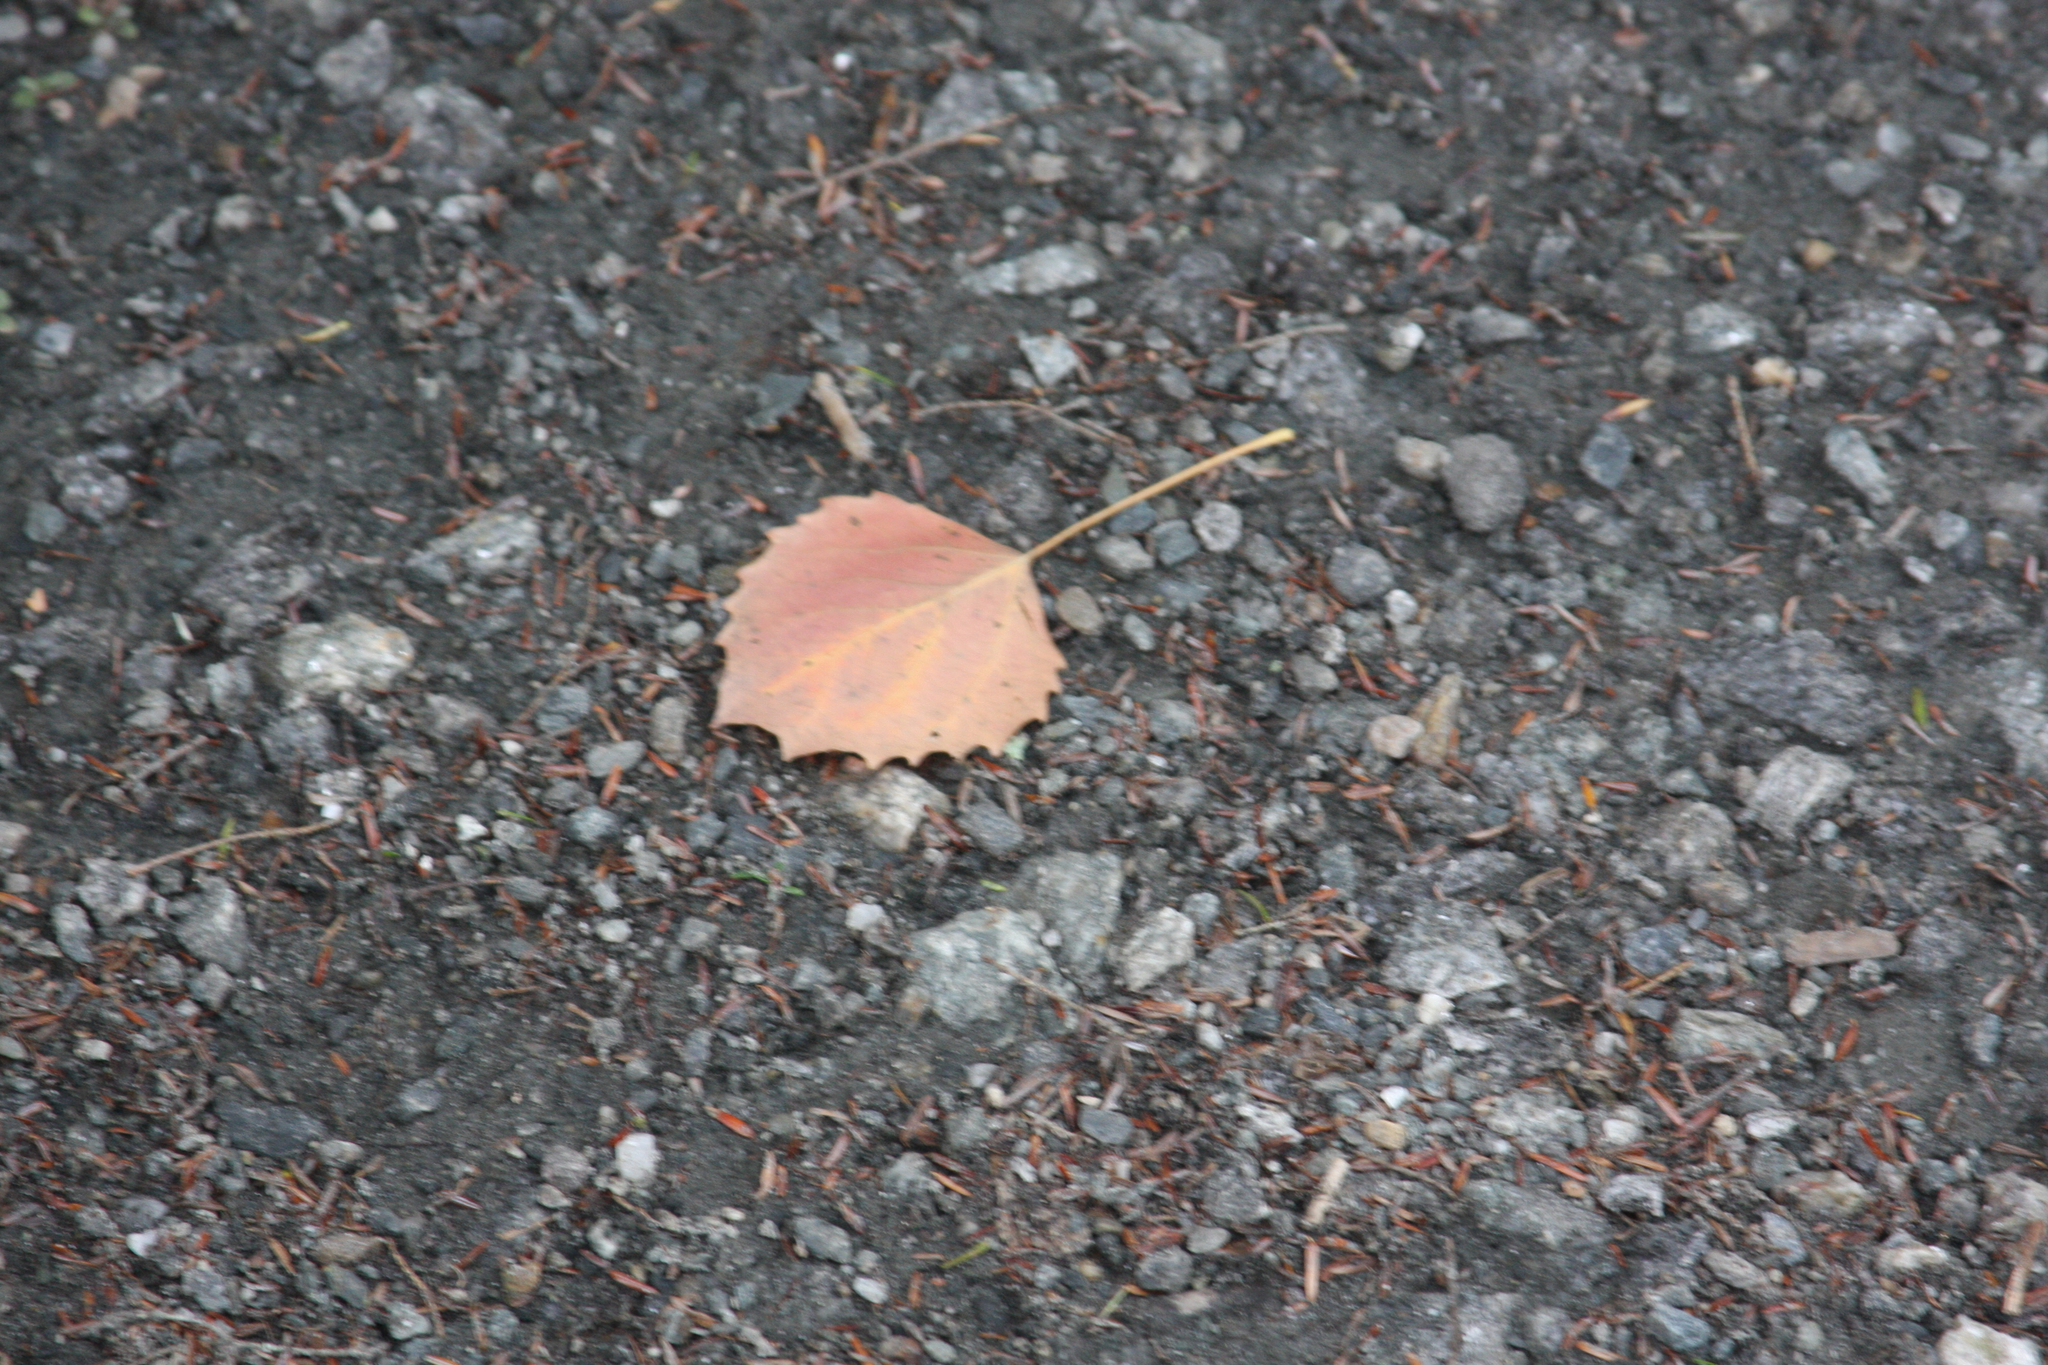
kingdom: Plantae
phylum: Tracheophyta
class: Magnoliopsida
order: Malpighiales
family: Salicaceae
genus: Populus
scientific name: Populus grandidentata
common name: Bigtooth aspen
